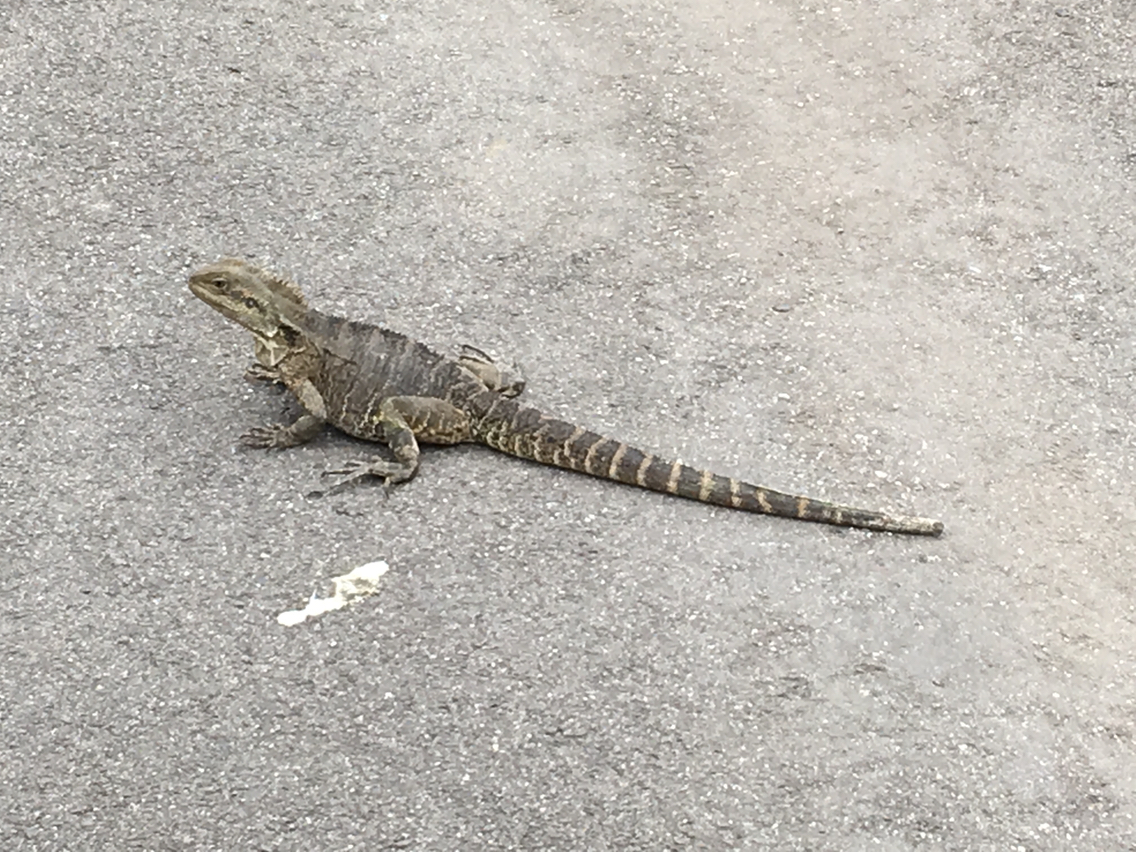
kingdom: Animalia
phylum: Chordata
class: Squamata
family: Agamidae
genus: Intellagama
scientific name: Intellagama lesueurii
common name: Eastern water dragon
